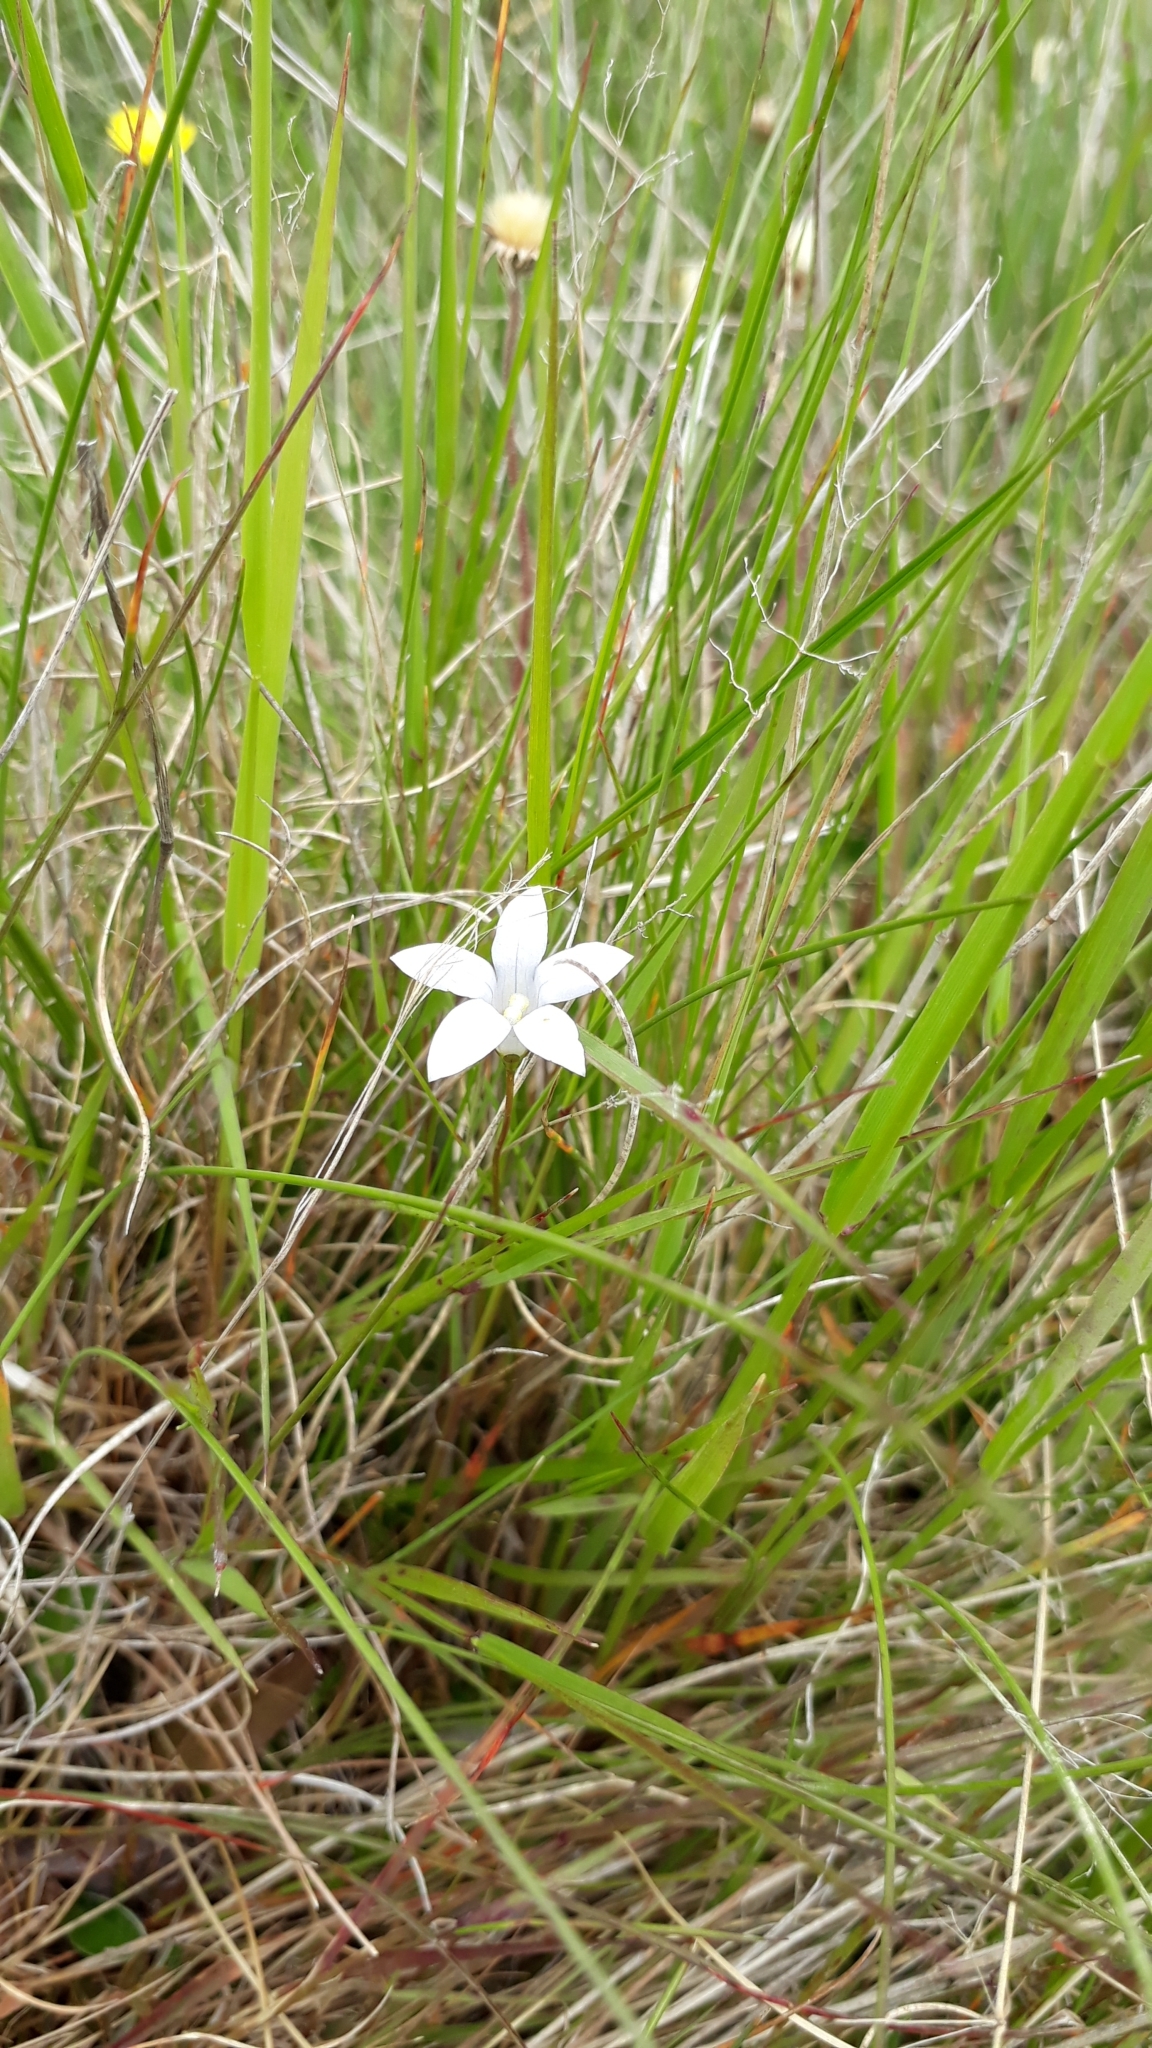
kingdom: Plantae
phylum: Tracheophyta
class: Magnoliopsida
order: Asterales
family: Campanulaceae
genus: Wahlenbergia
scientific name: Wahlenbergia albomarginata
